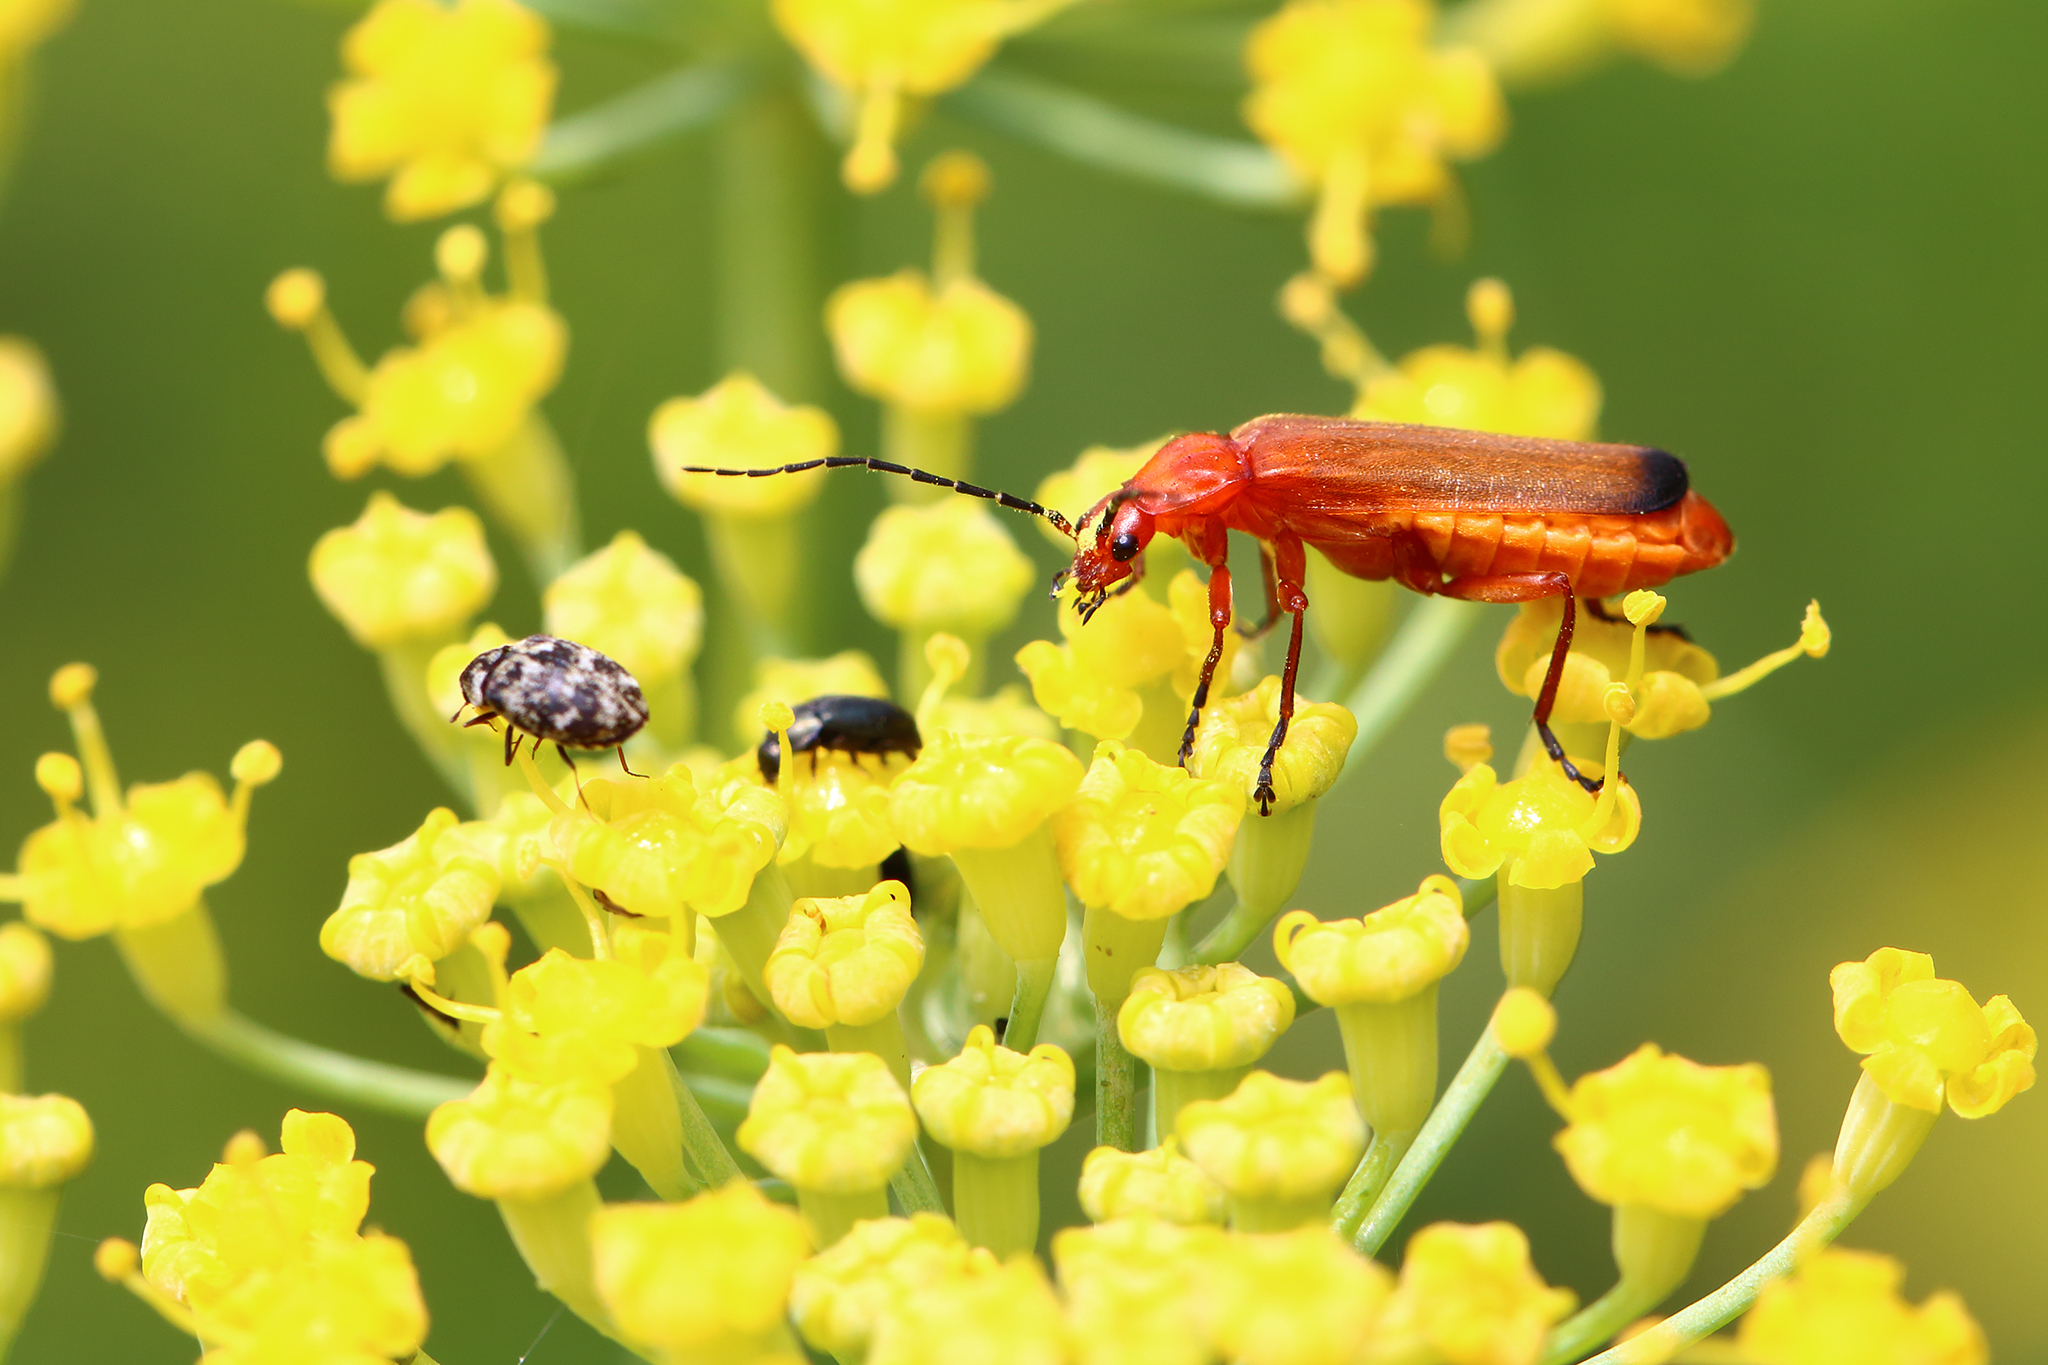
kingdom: Animalia
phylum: Arthropoda
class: Insecta
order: Coleoptera
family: Cantharidae
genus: Rhagonycha
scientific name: Rhagonycha fulva
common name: Common red soldier beetle
